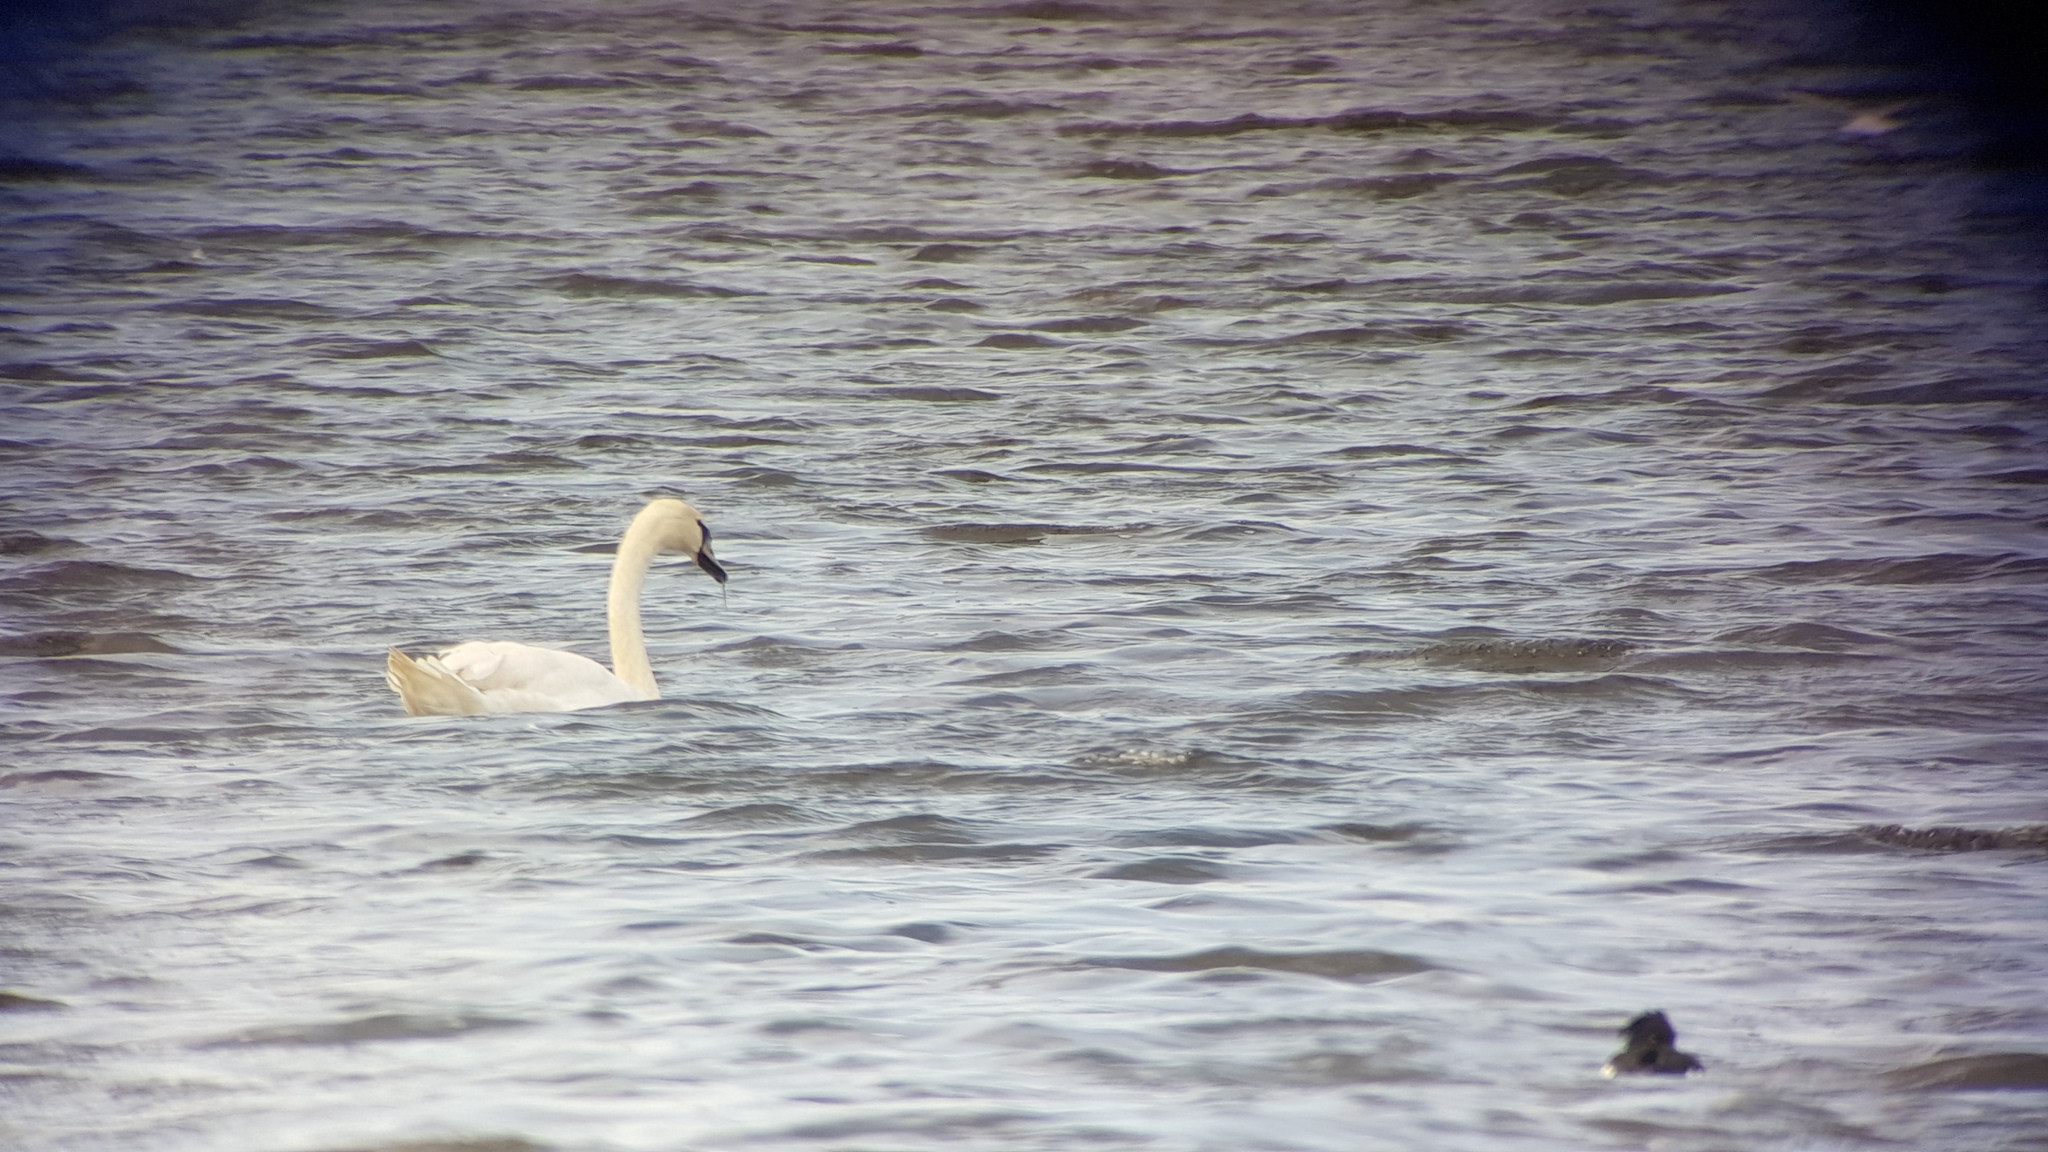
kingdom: Animalia
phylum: Chordata
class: Aves
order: Anseriformes
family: Anatidae
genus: Cygnus
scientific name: Cygnus olor
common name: Mute swan
